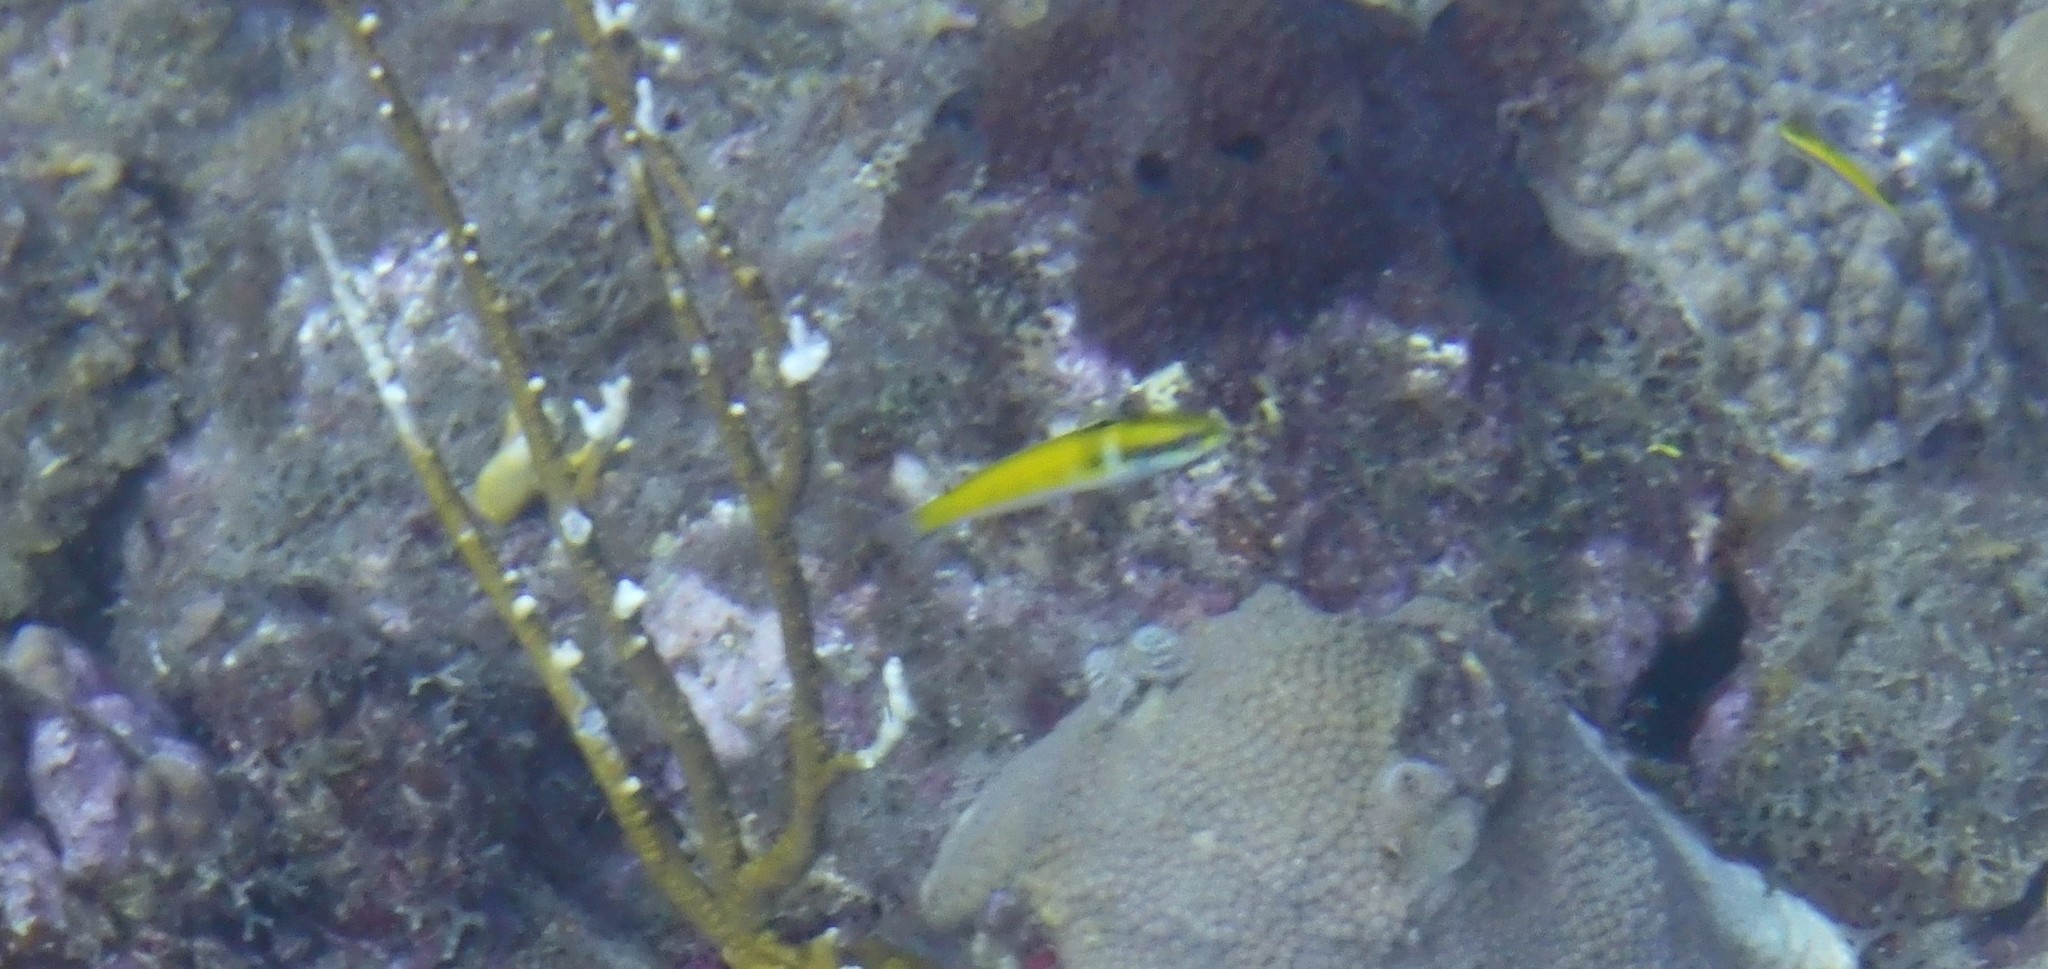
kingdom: Animalia
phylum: Chordata
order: Perciformes
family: Labridae
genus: Thalassoma
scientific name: Thalassoma bifasciatum
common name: Bluehead wrasse
